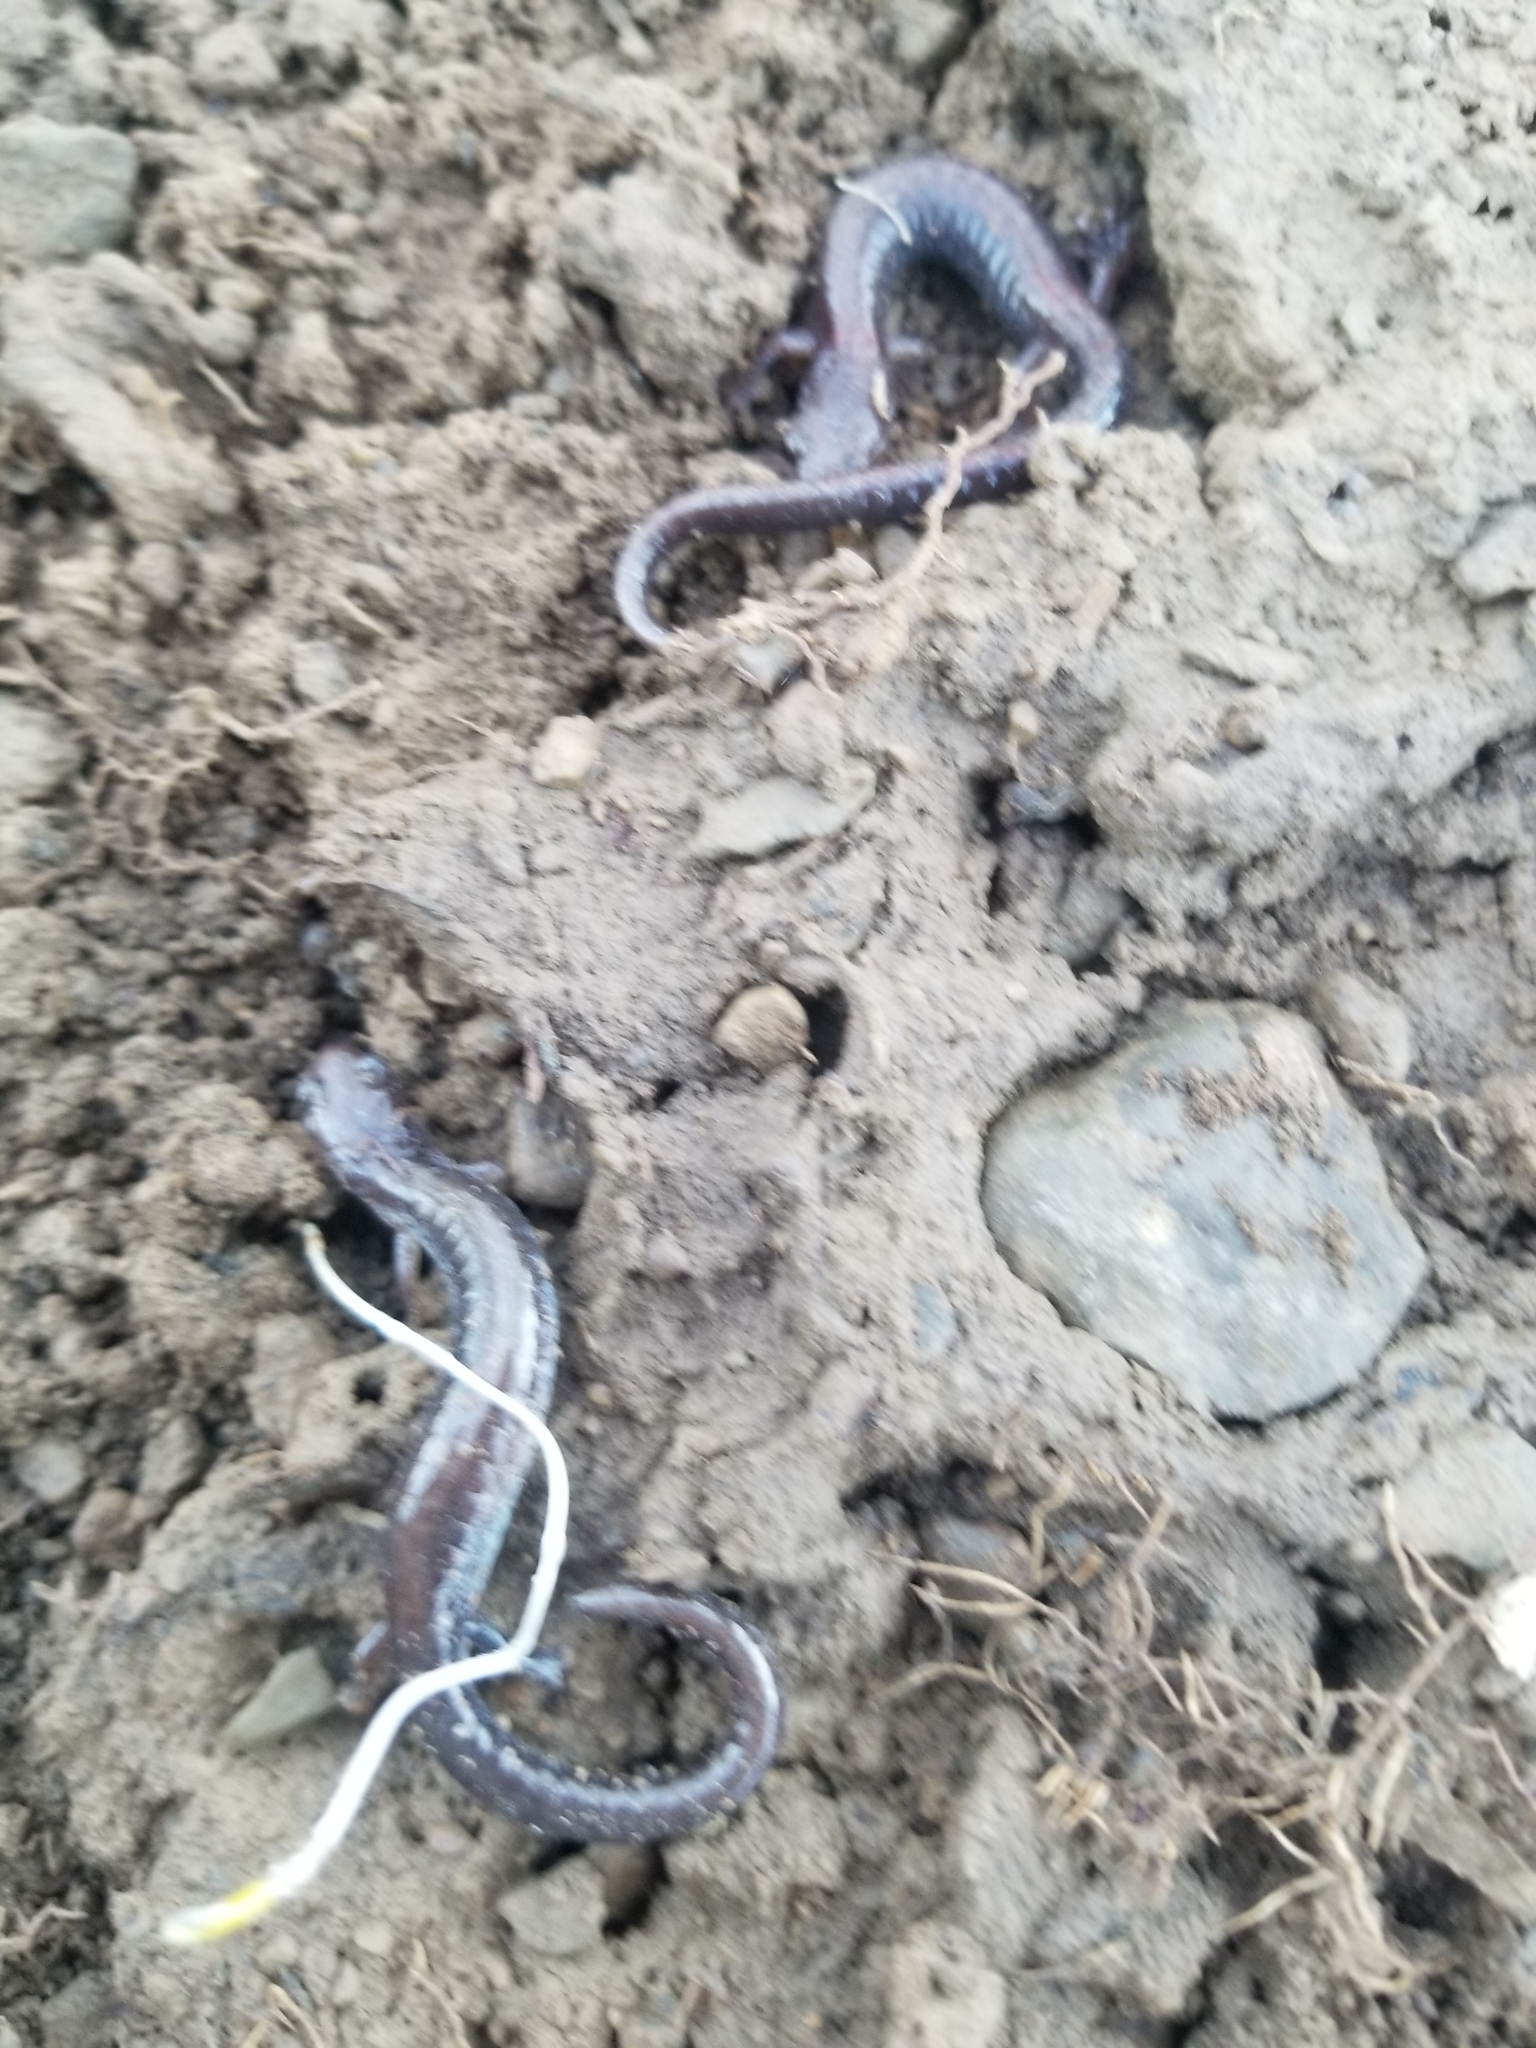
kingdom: Animalia
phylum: Chordata
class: Amphibia
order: Caudata
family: Plethodontidae
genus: Plethodon
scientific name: Plethodon cinereus
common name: Redback salamander
